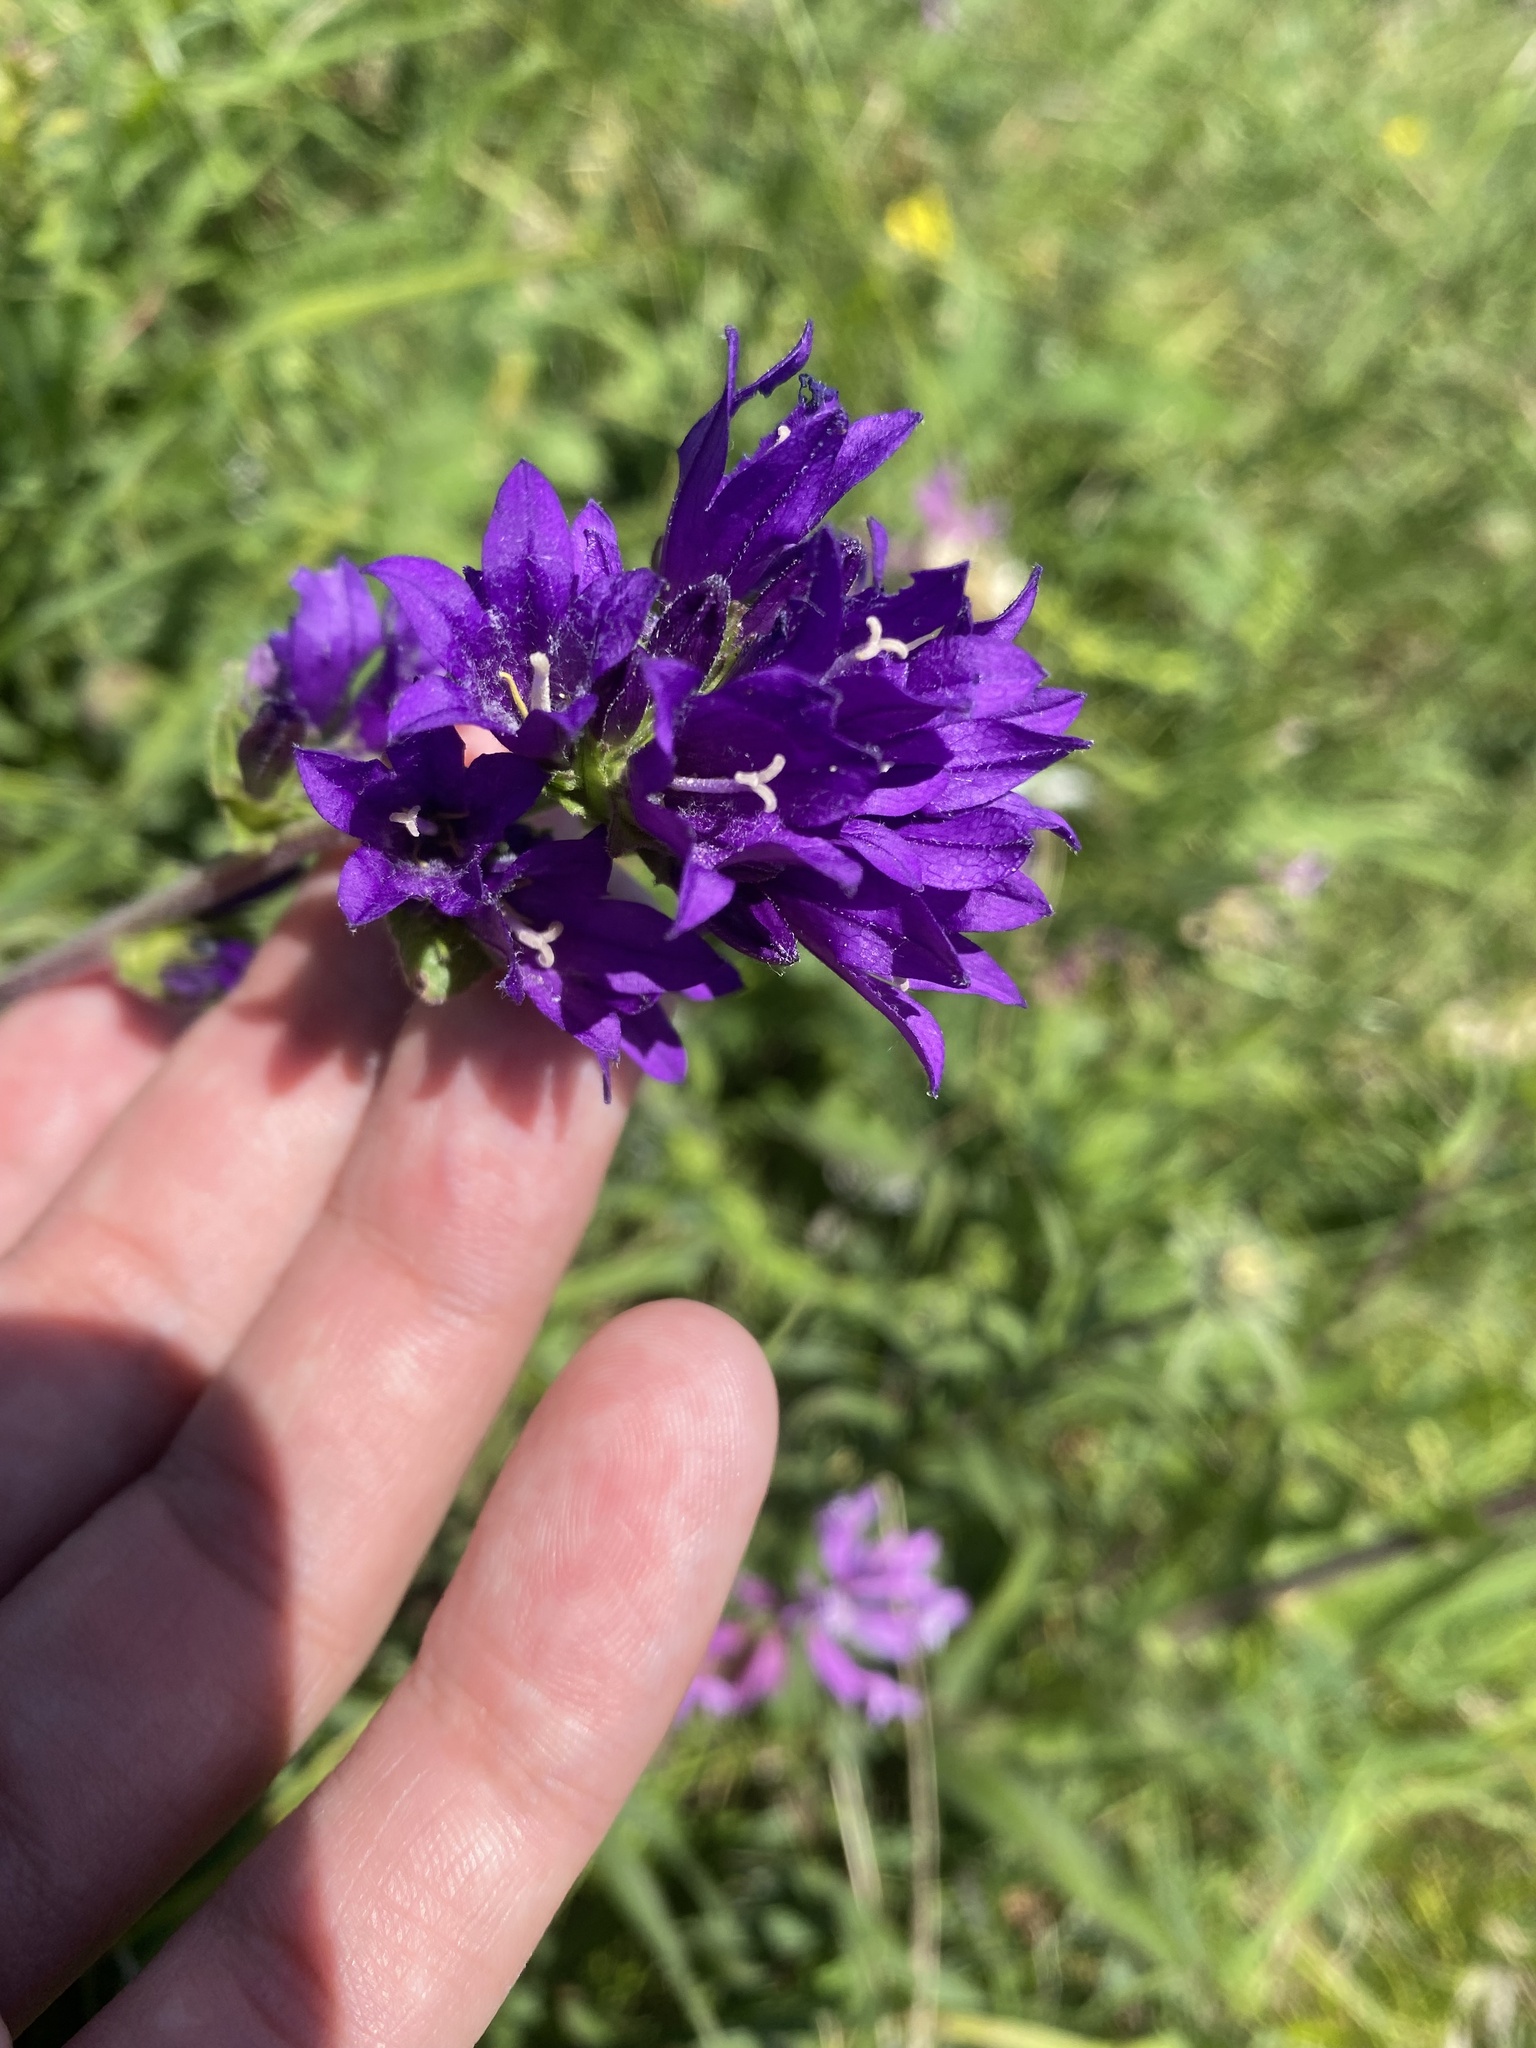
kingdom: Plantae
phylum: Tracheophyta
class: Magnoliopsida
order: Asterales
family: Campanulaceae
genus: Campanula
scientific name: Campanula glomerata
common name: Clustered bellflower
